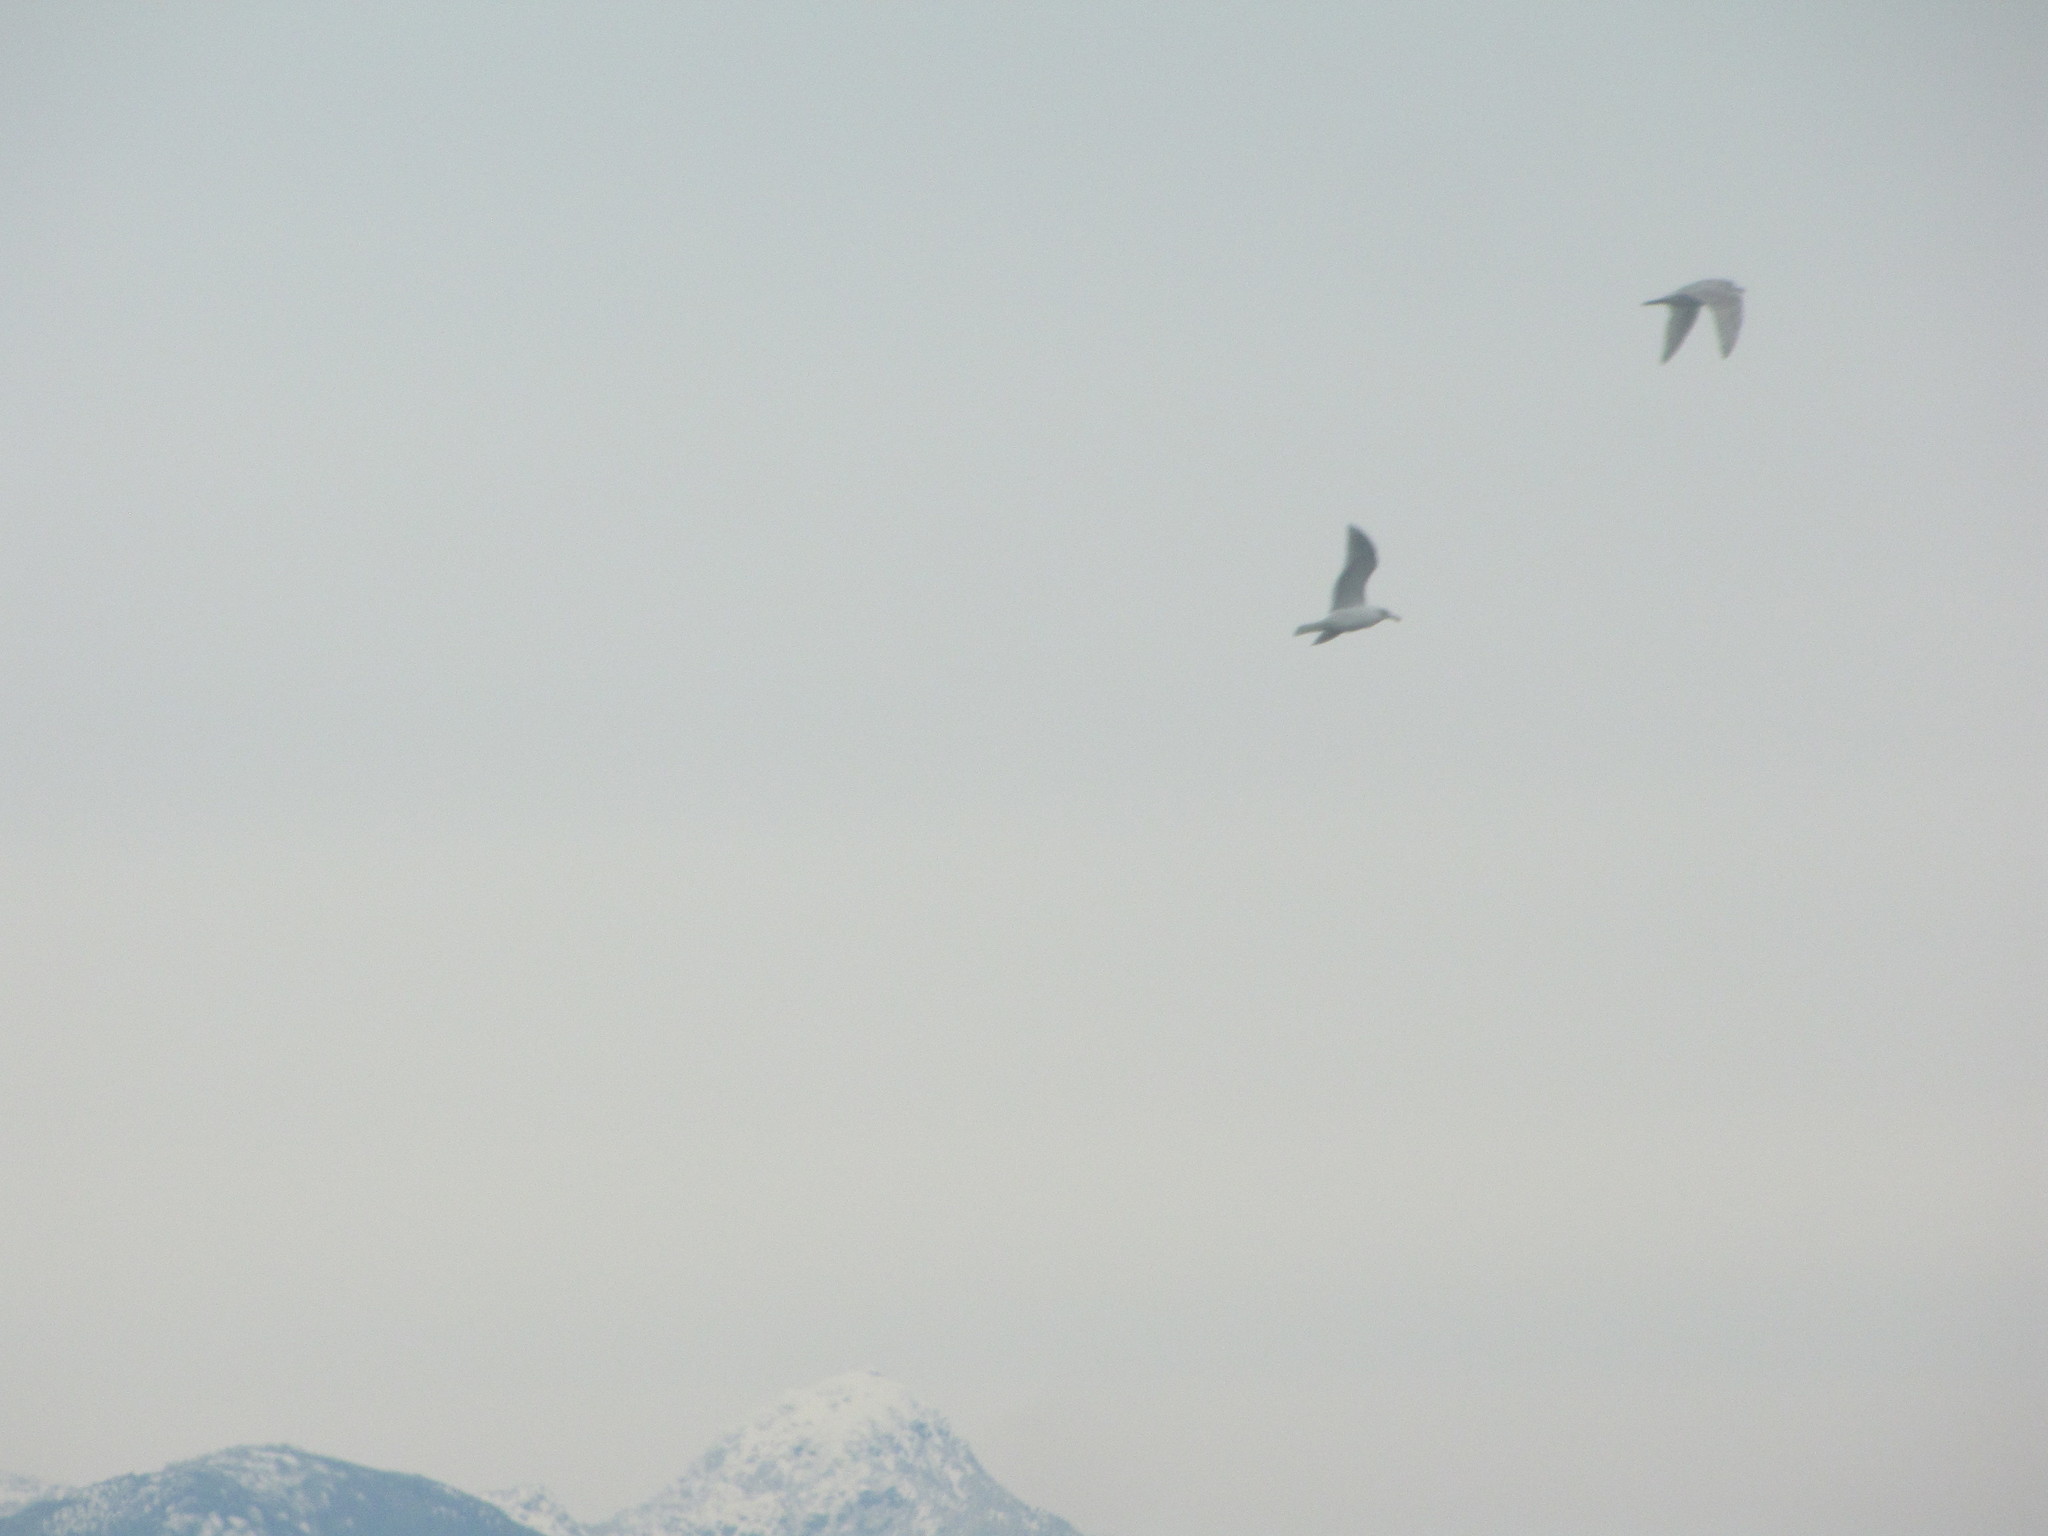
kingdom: Animalia
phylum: Chordata
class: Aves
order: Charadriiformes
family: Laridae
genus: Larus
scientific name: Larus glaucescens
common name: Glaucous-winged gull
